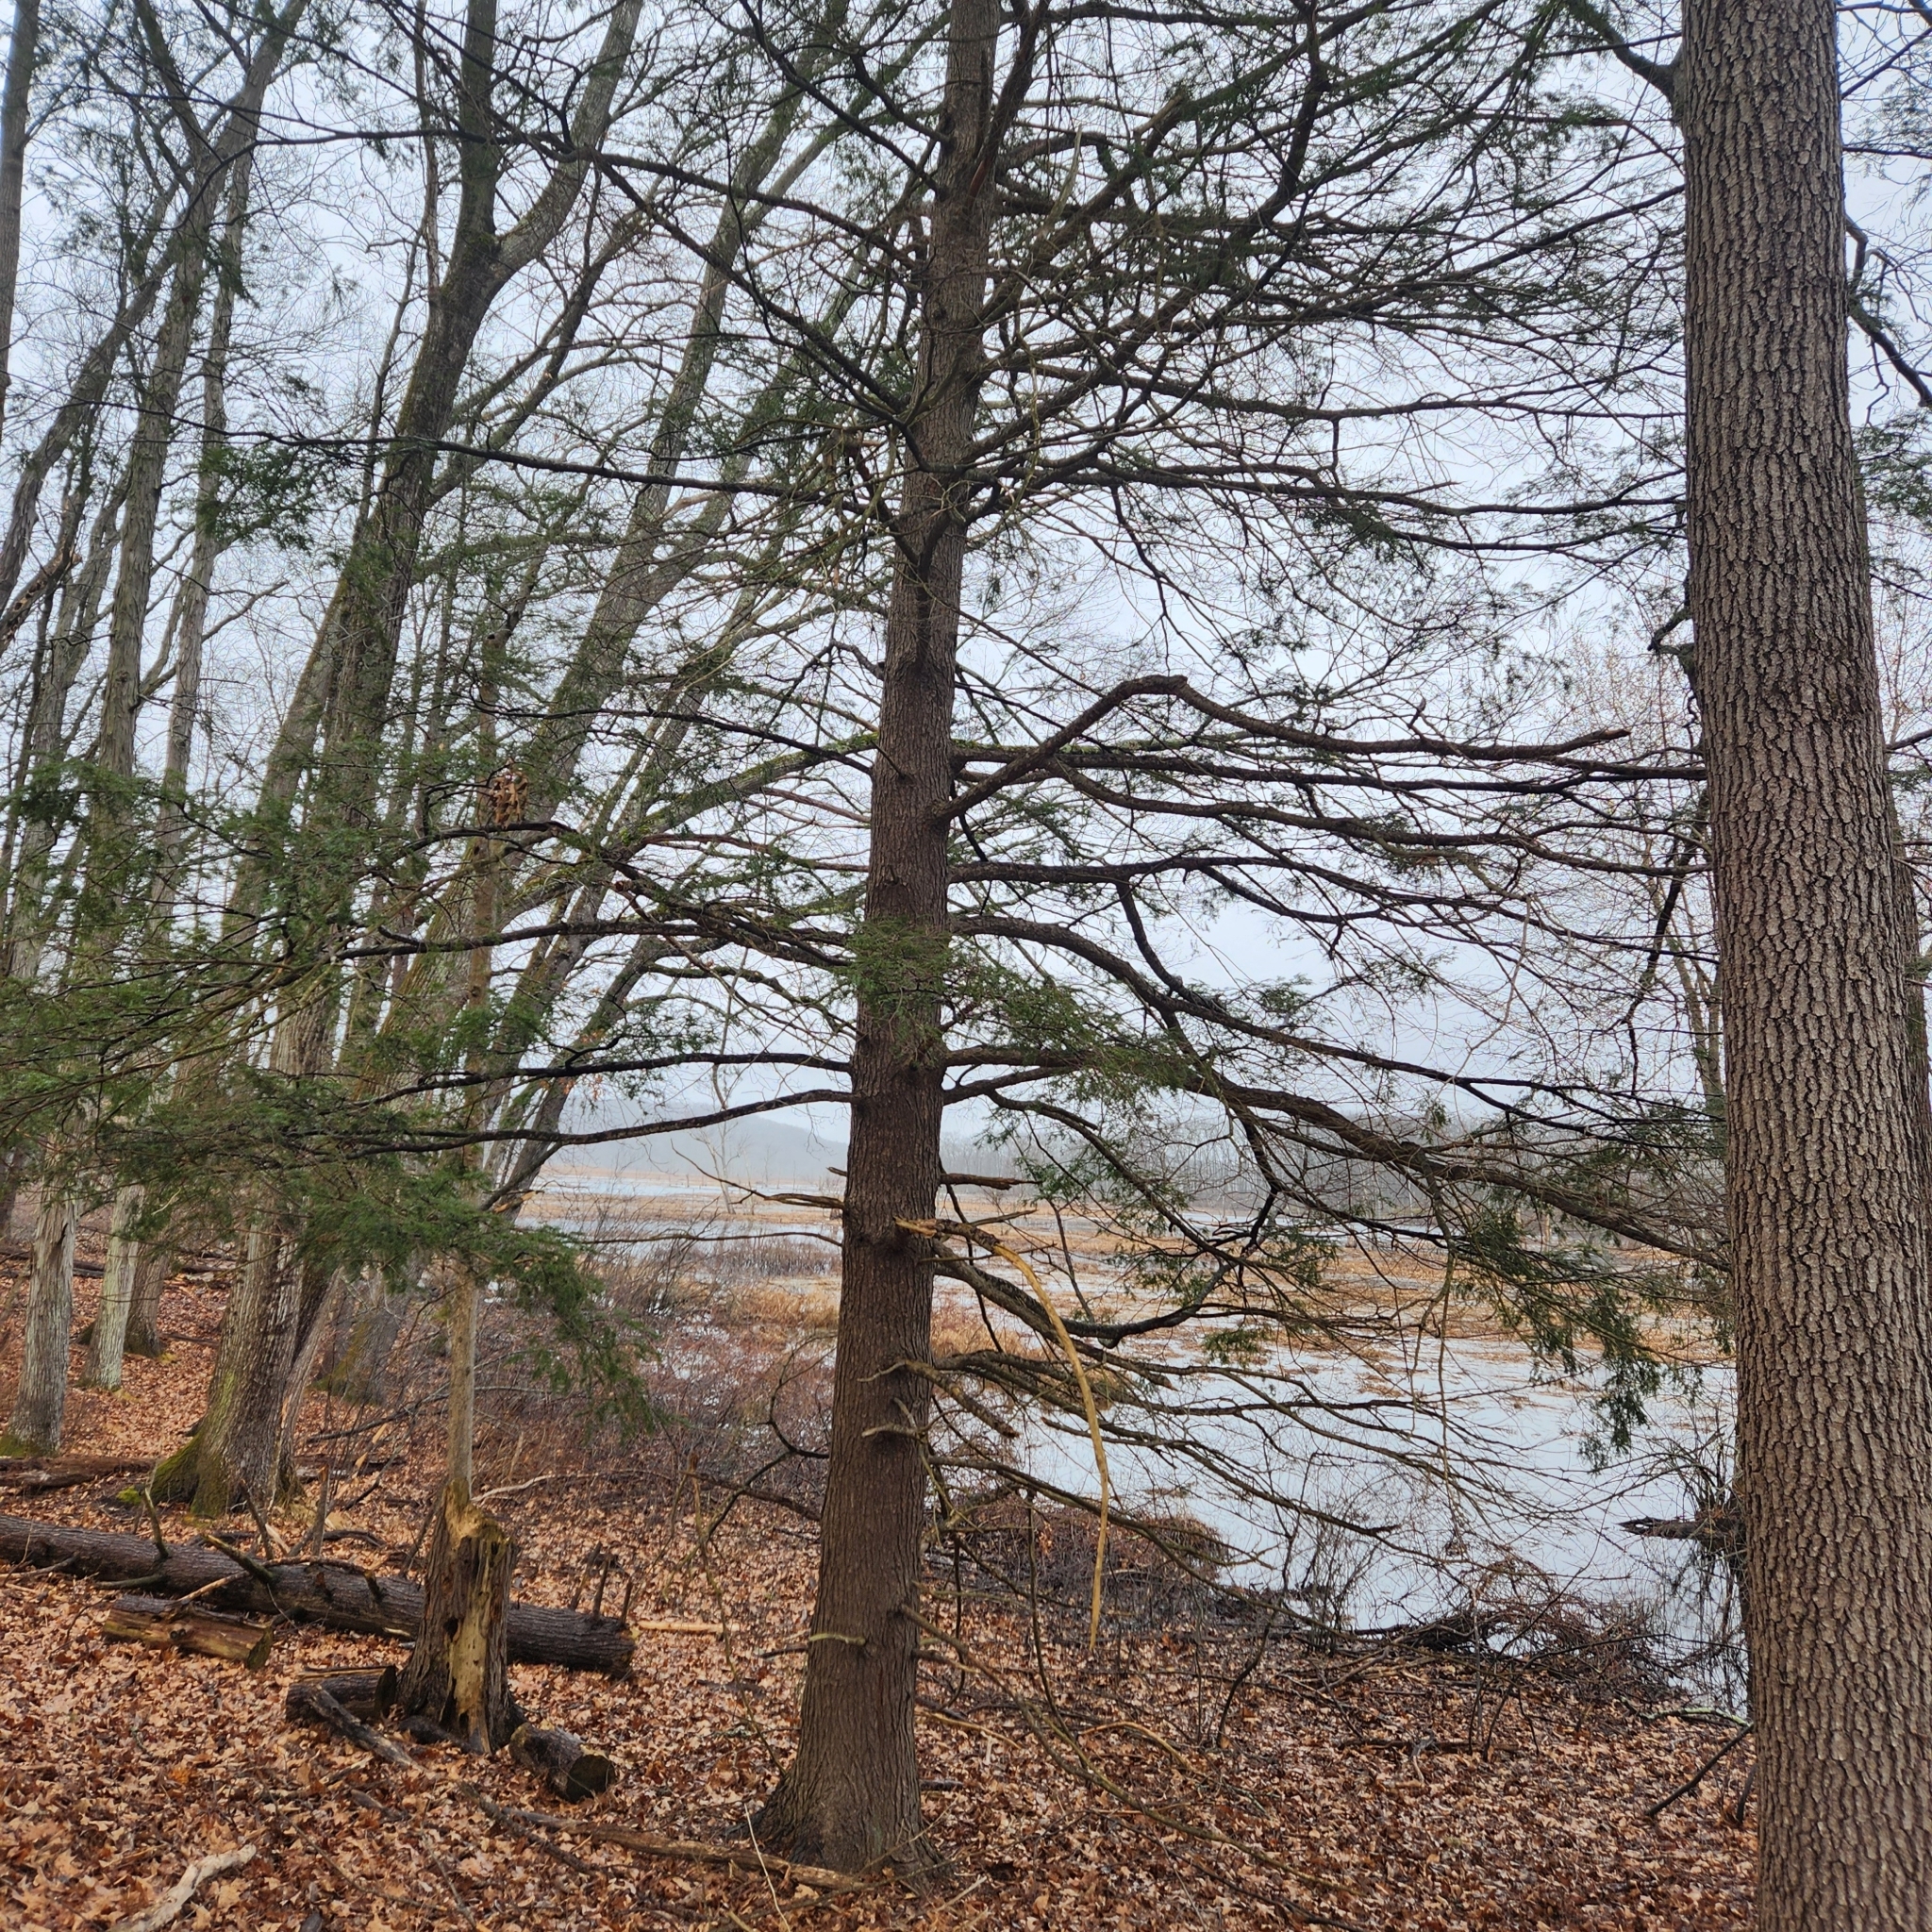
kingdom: Plantae
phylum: Tracheophyta
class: Pinopsida
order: Pinales
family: Pinaceae
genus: Tsuga
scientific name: Tsuga canadensis
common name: Eastern hemlock
